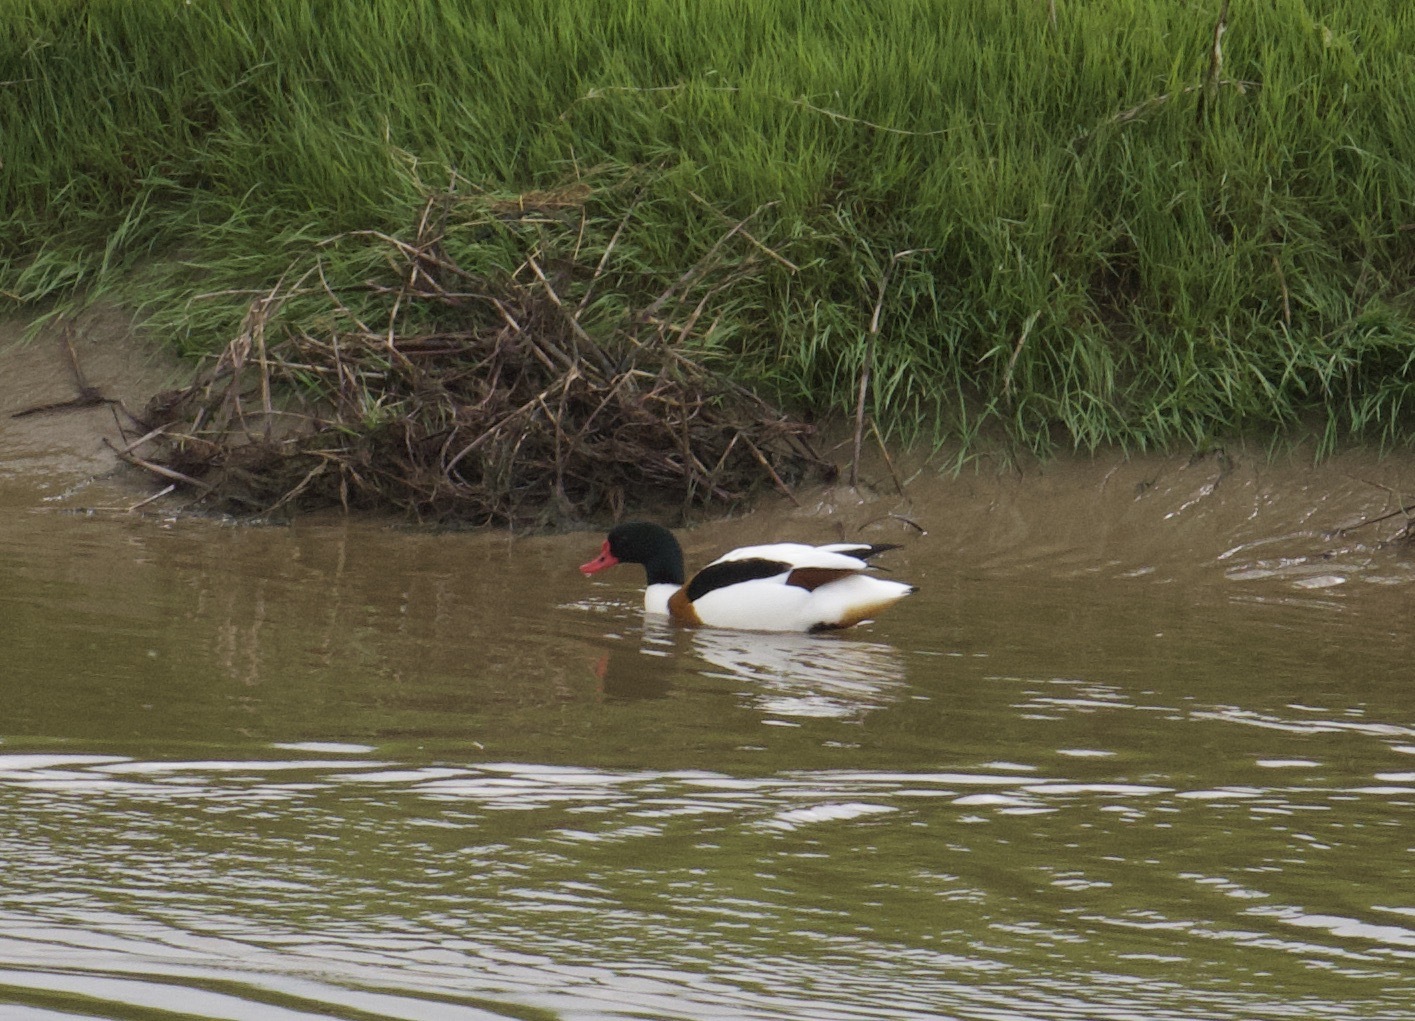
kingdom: Animalia
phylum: Chordata
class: Aves
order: Anseriformes
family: Anatidae
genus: Tadorna
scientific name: Tadorna tadorna
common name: Common shelduck
